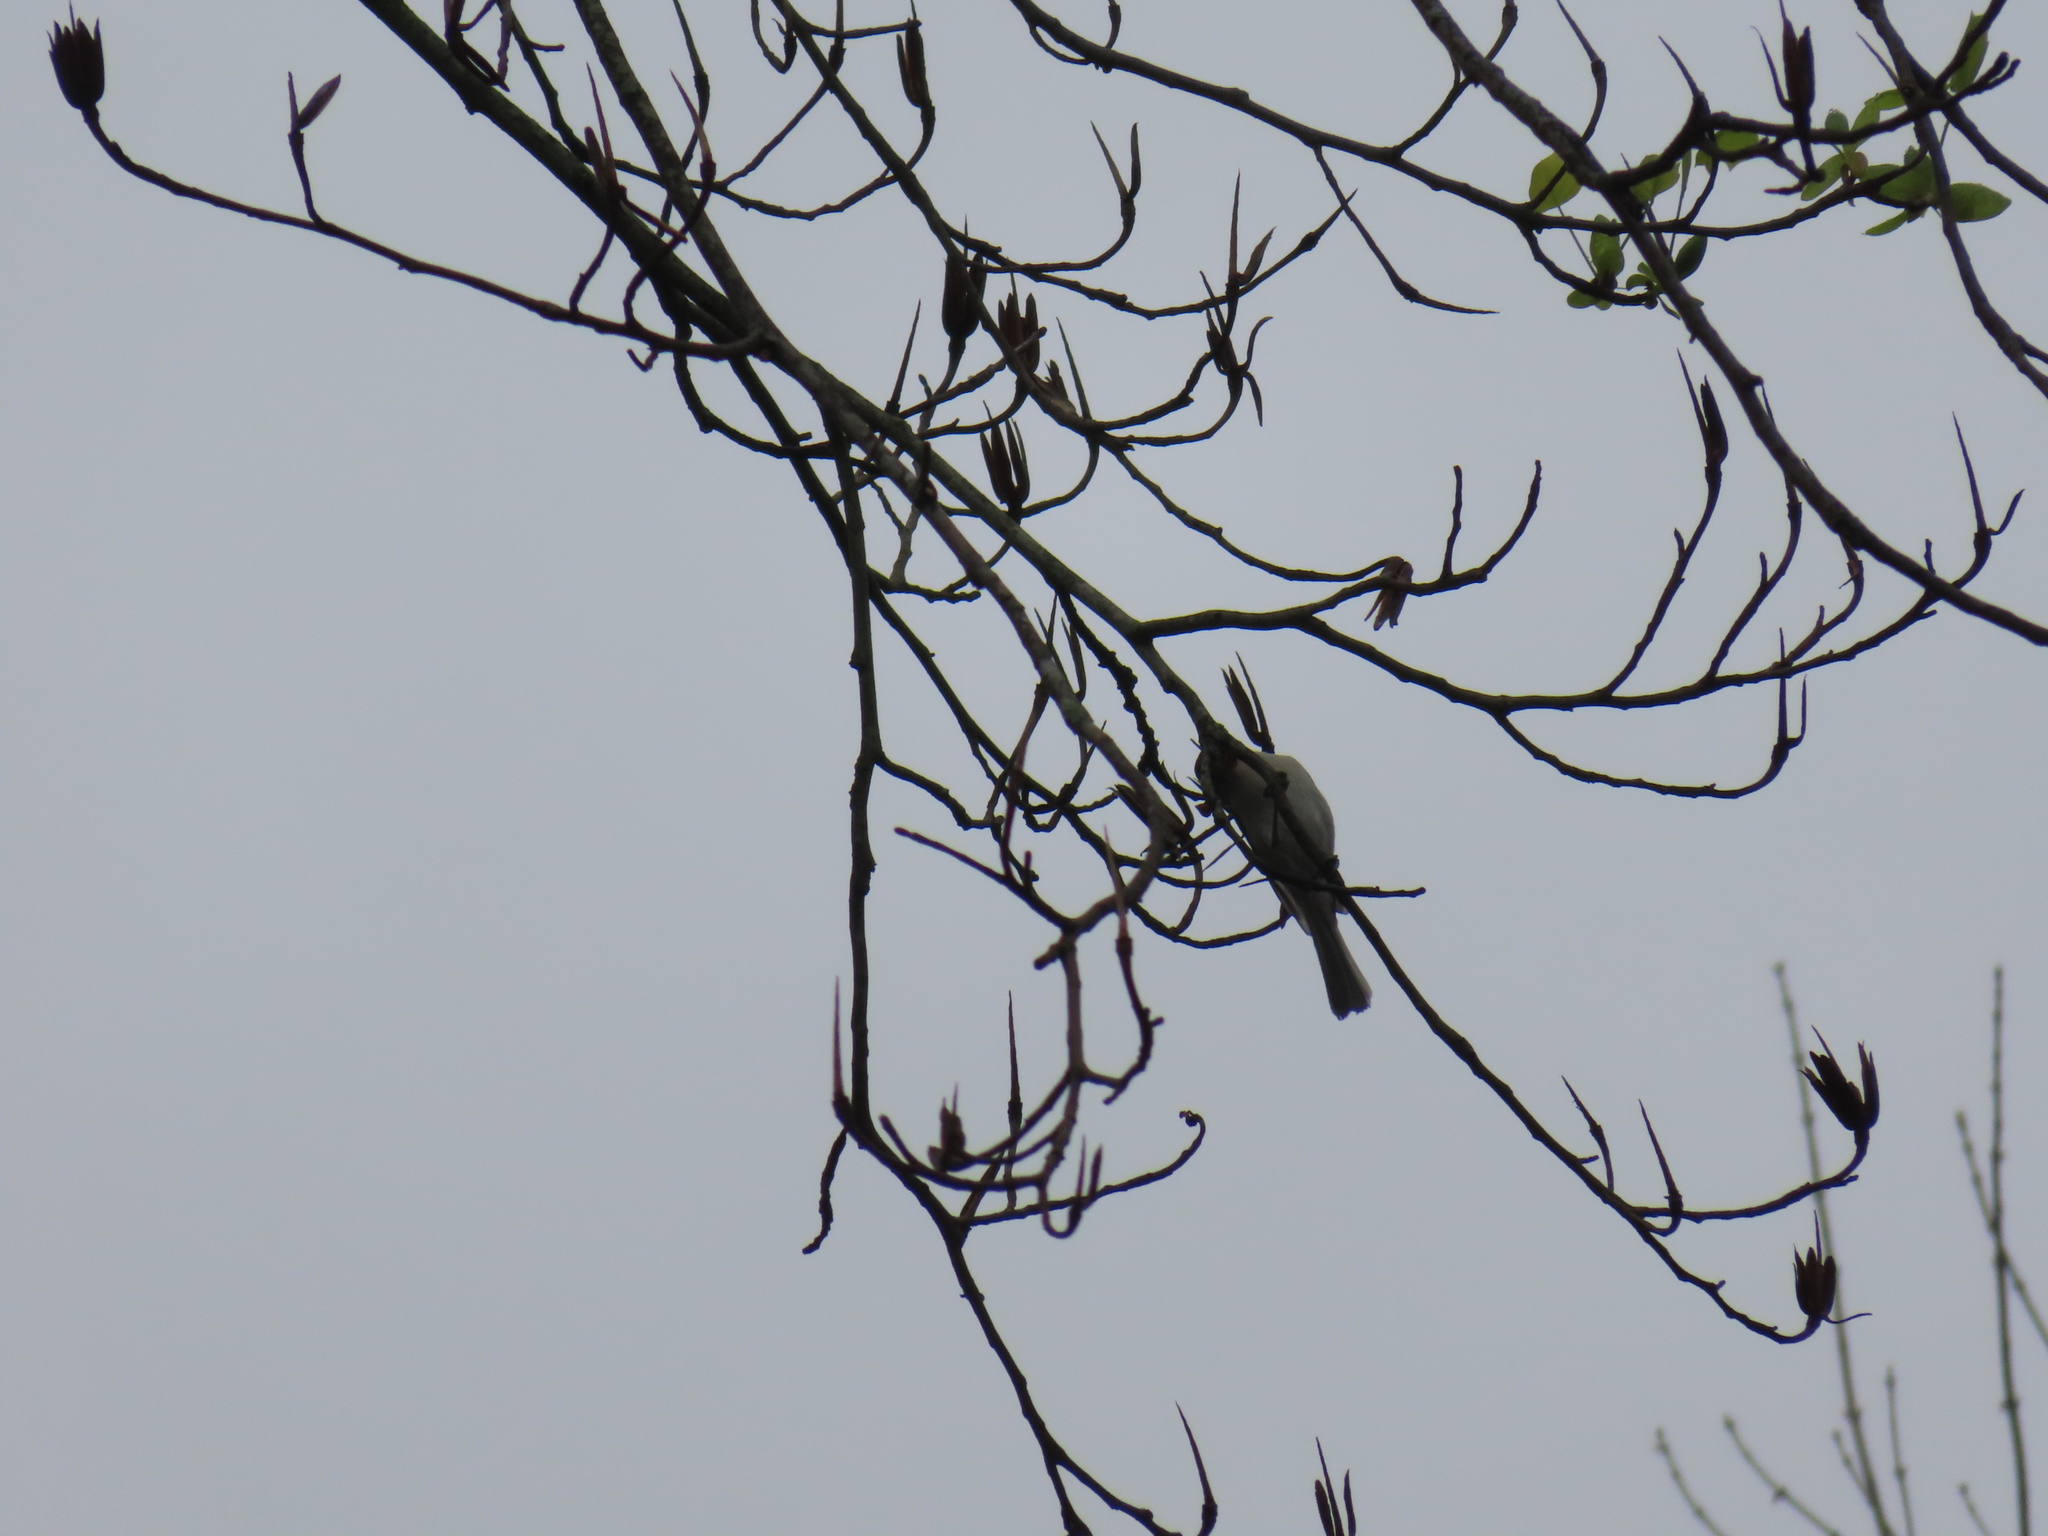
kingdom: Animalia
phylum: Chordata
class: Aves
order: Passeriformes
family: Paridae
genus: Baeolophus
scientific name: Baeolophus bicolor
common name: Tufted titmouse
